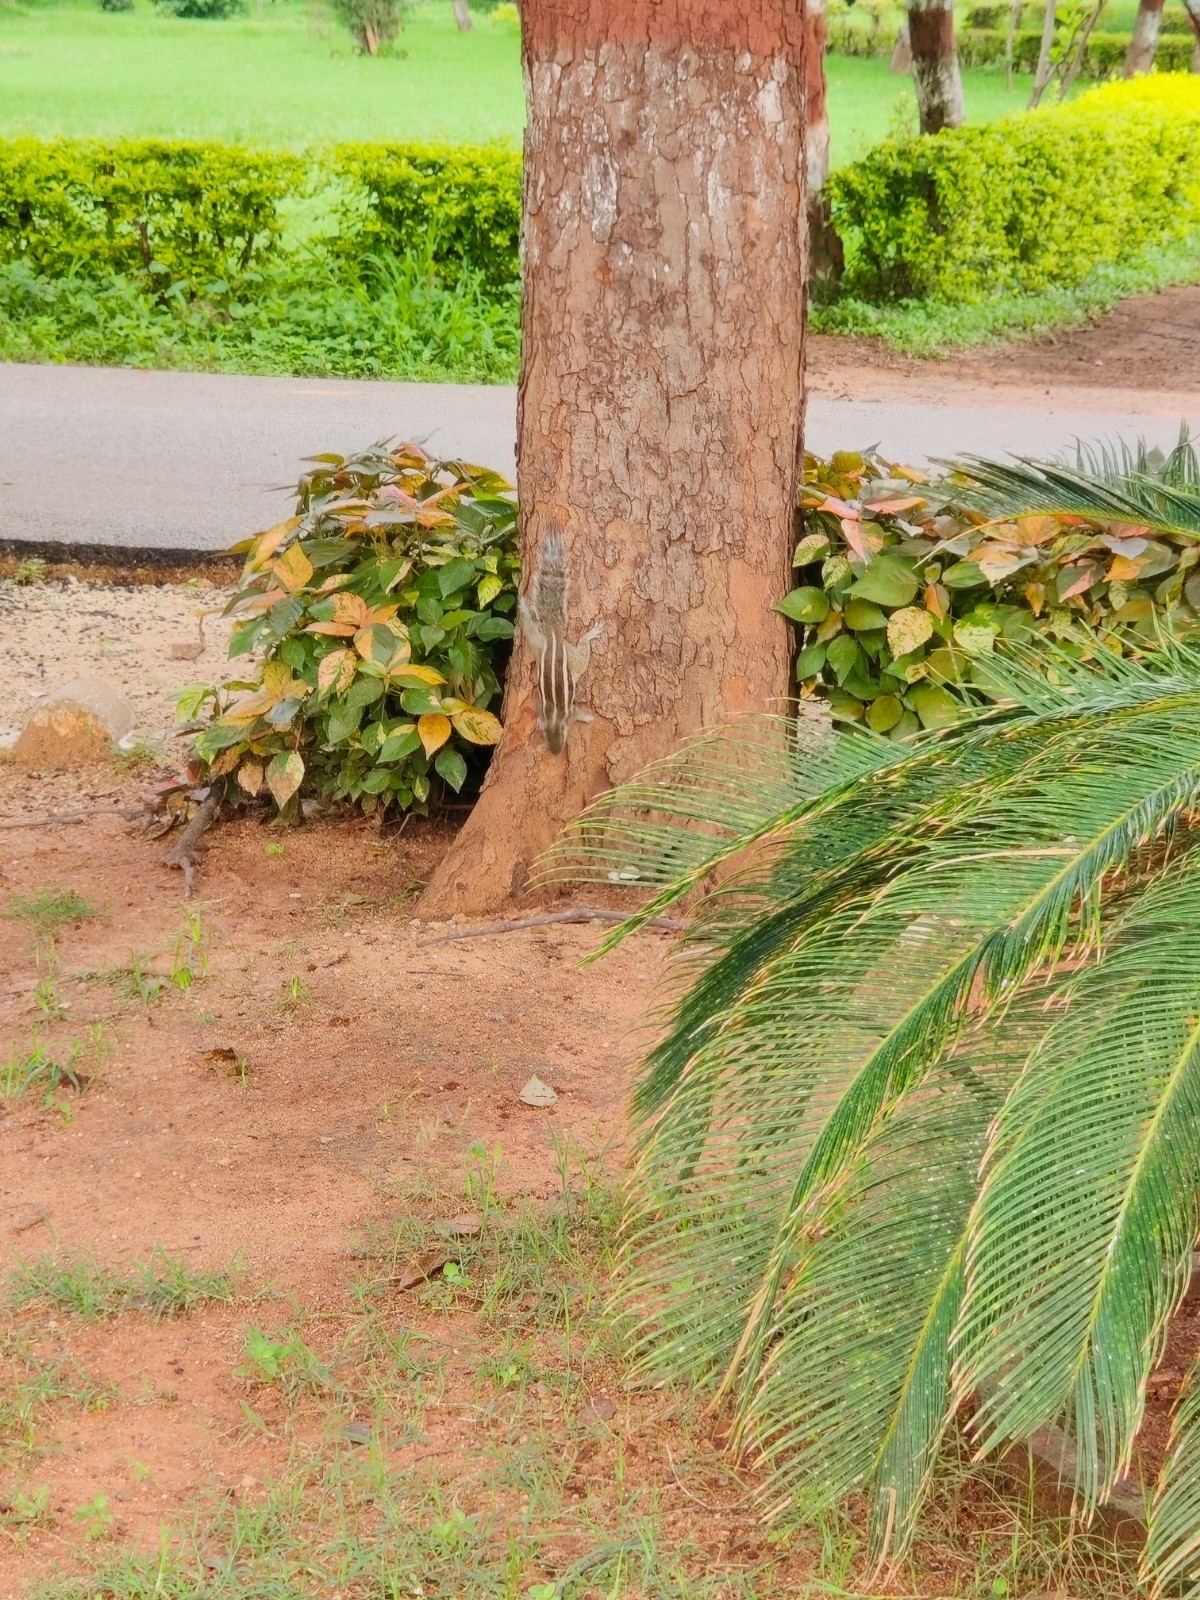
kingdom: Animalia
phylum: Chordata
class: Mammalia
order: Rodentia
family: Sciuridae
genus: Funambulus
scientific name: Funambulus pennantii
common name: Northern palm squirrel
